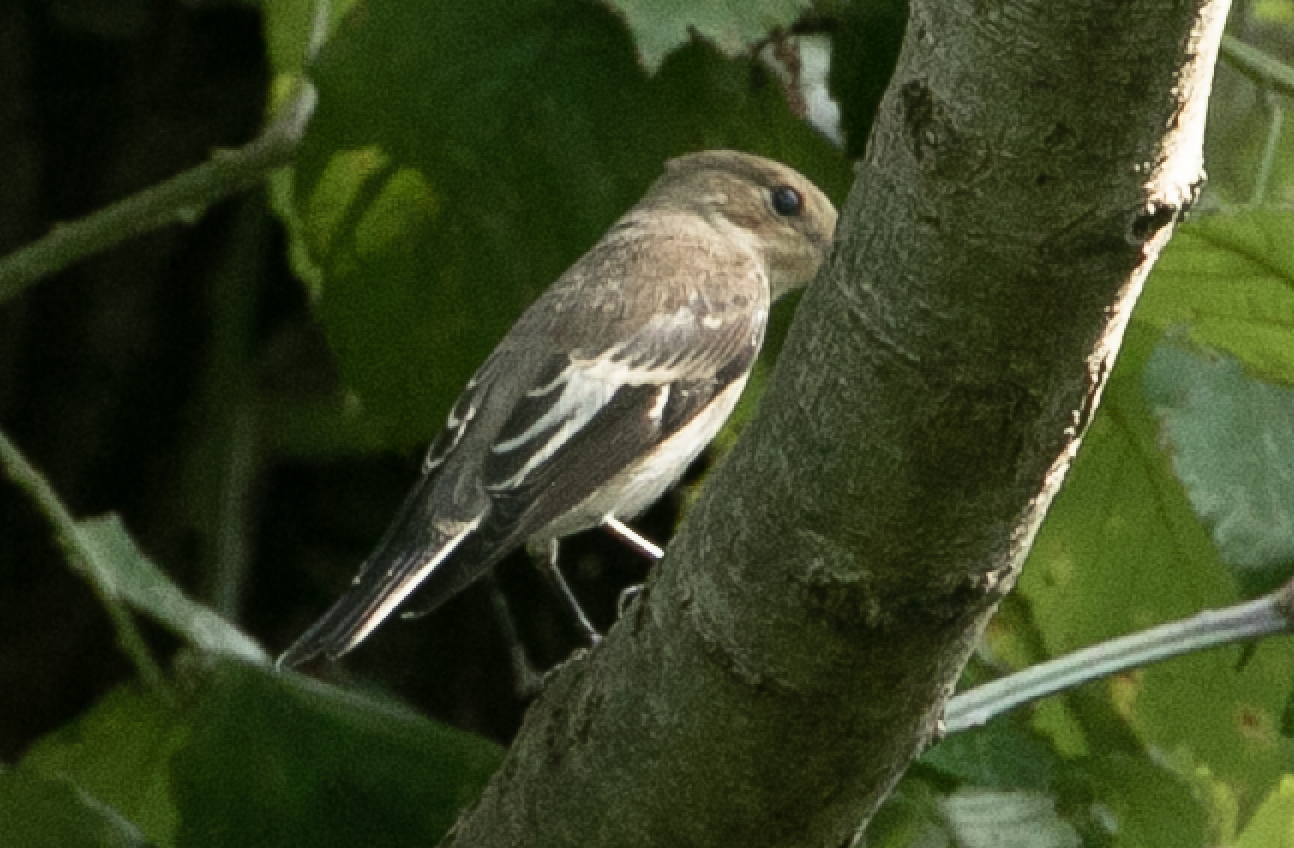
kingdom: Animalia
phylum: Chordata
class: Aves
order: Passeriformes
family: Muscicapidae
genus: Ficedula
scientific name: Ficedula hypoleuca
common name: European pied flycatcher
